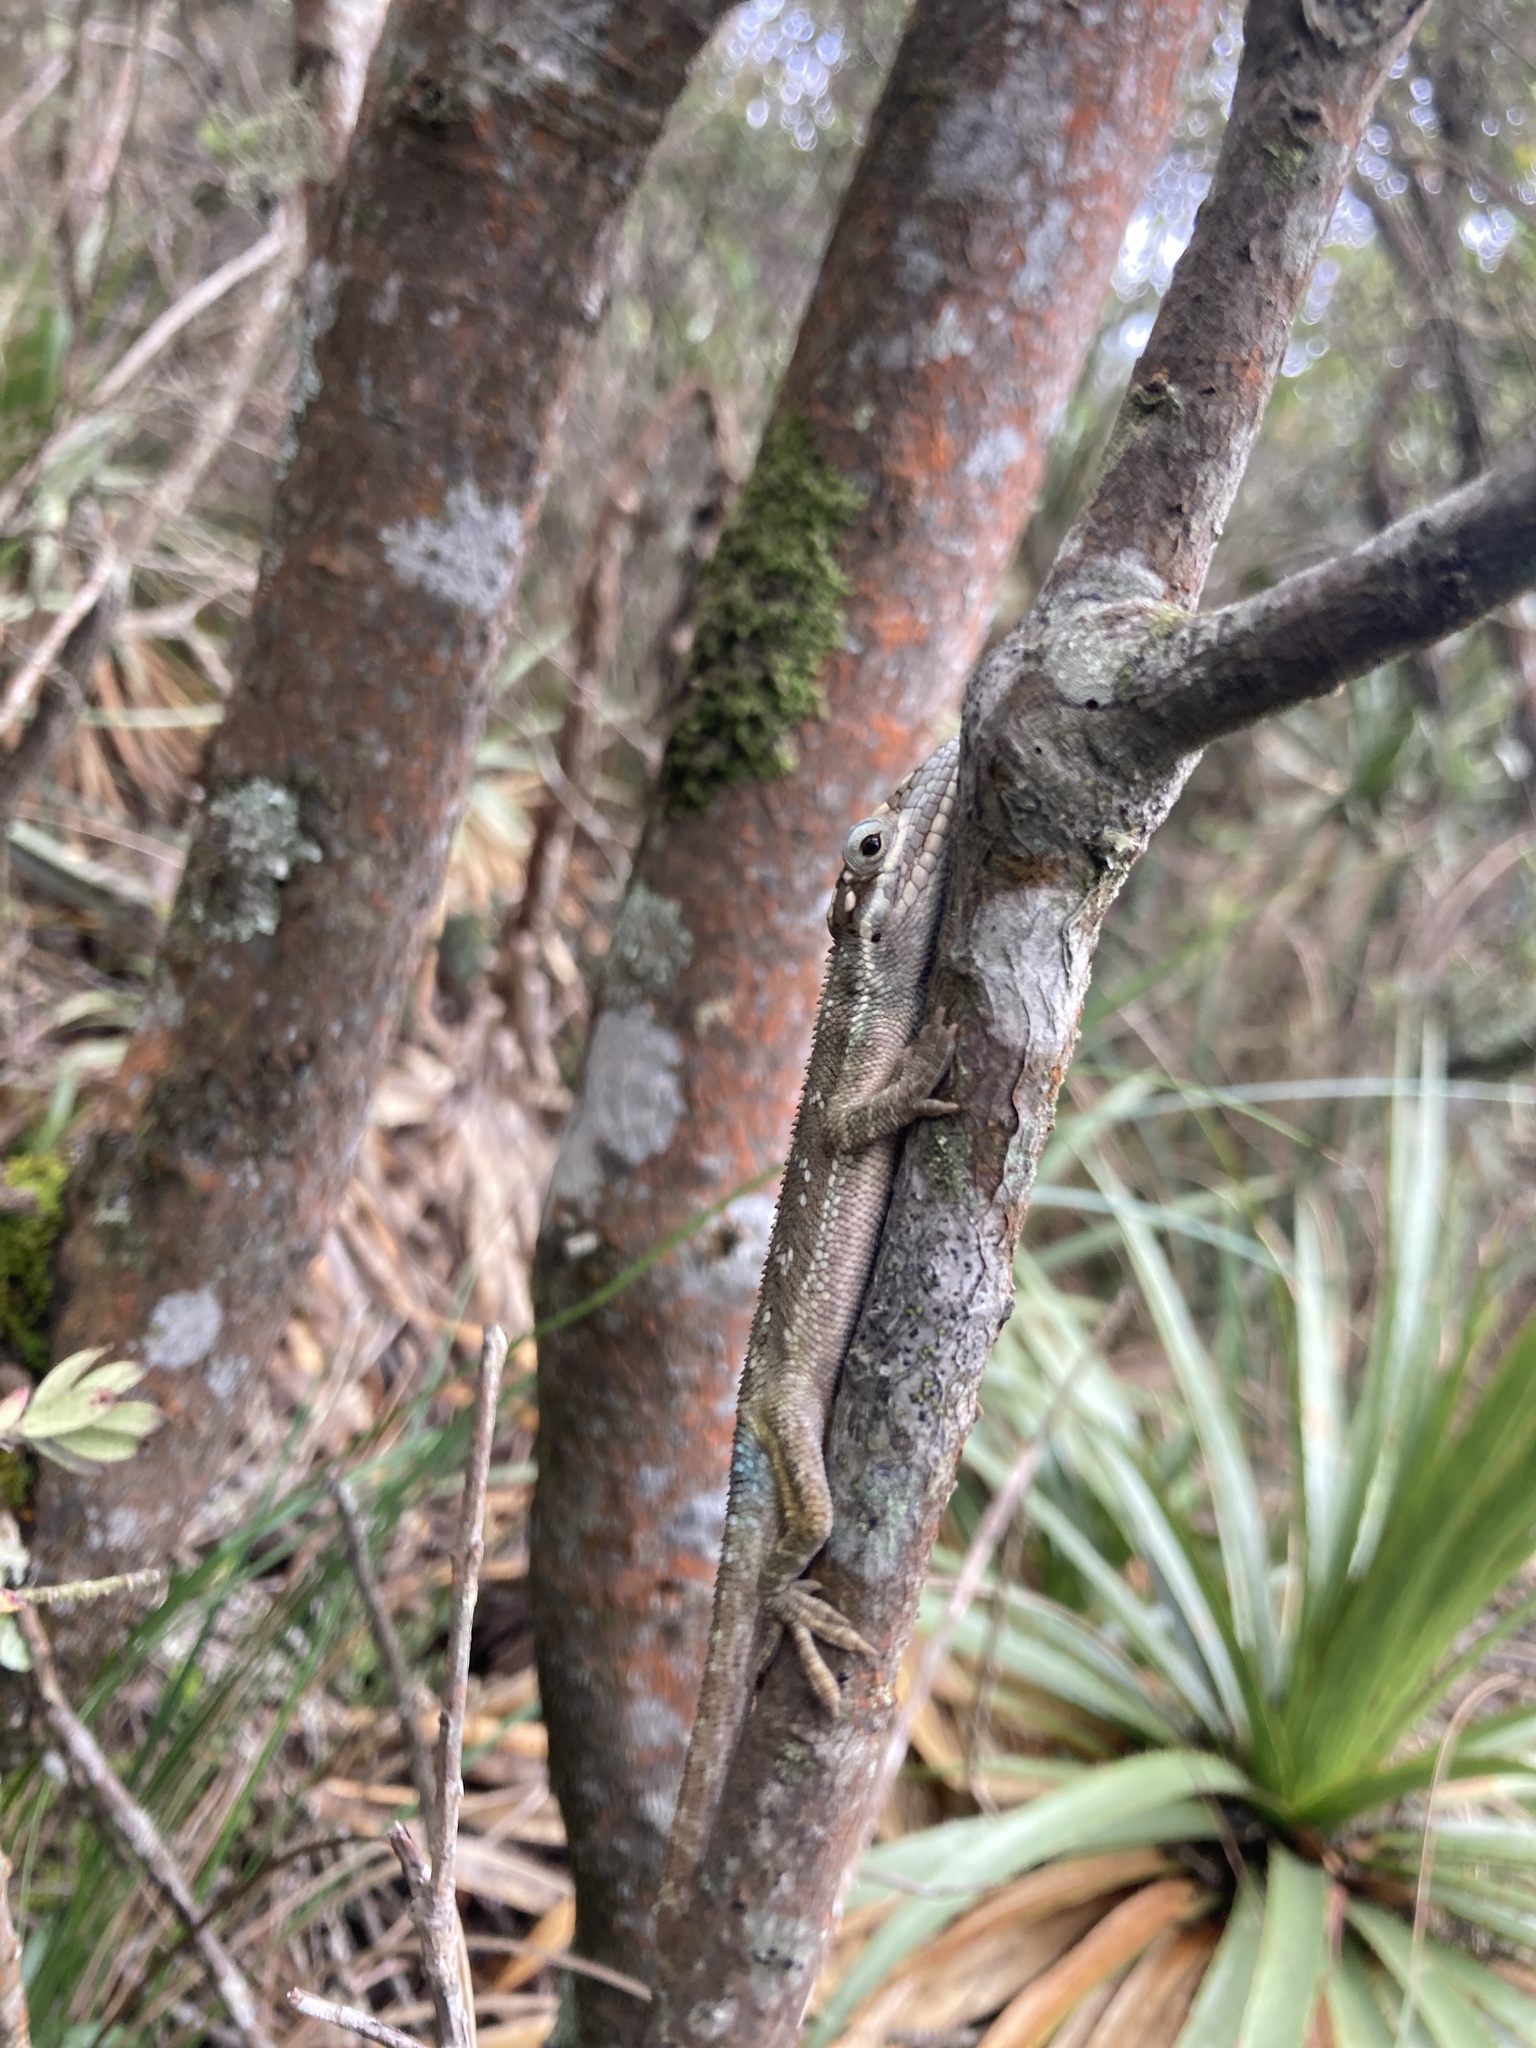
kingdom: Animalia
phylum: Chordata
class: Squamata
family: Dactyloidae
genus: Anolis
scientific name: Anolis heterodermus
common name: Flat andes anole
